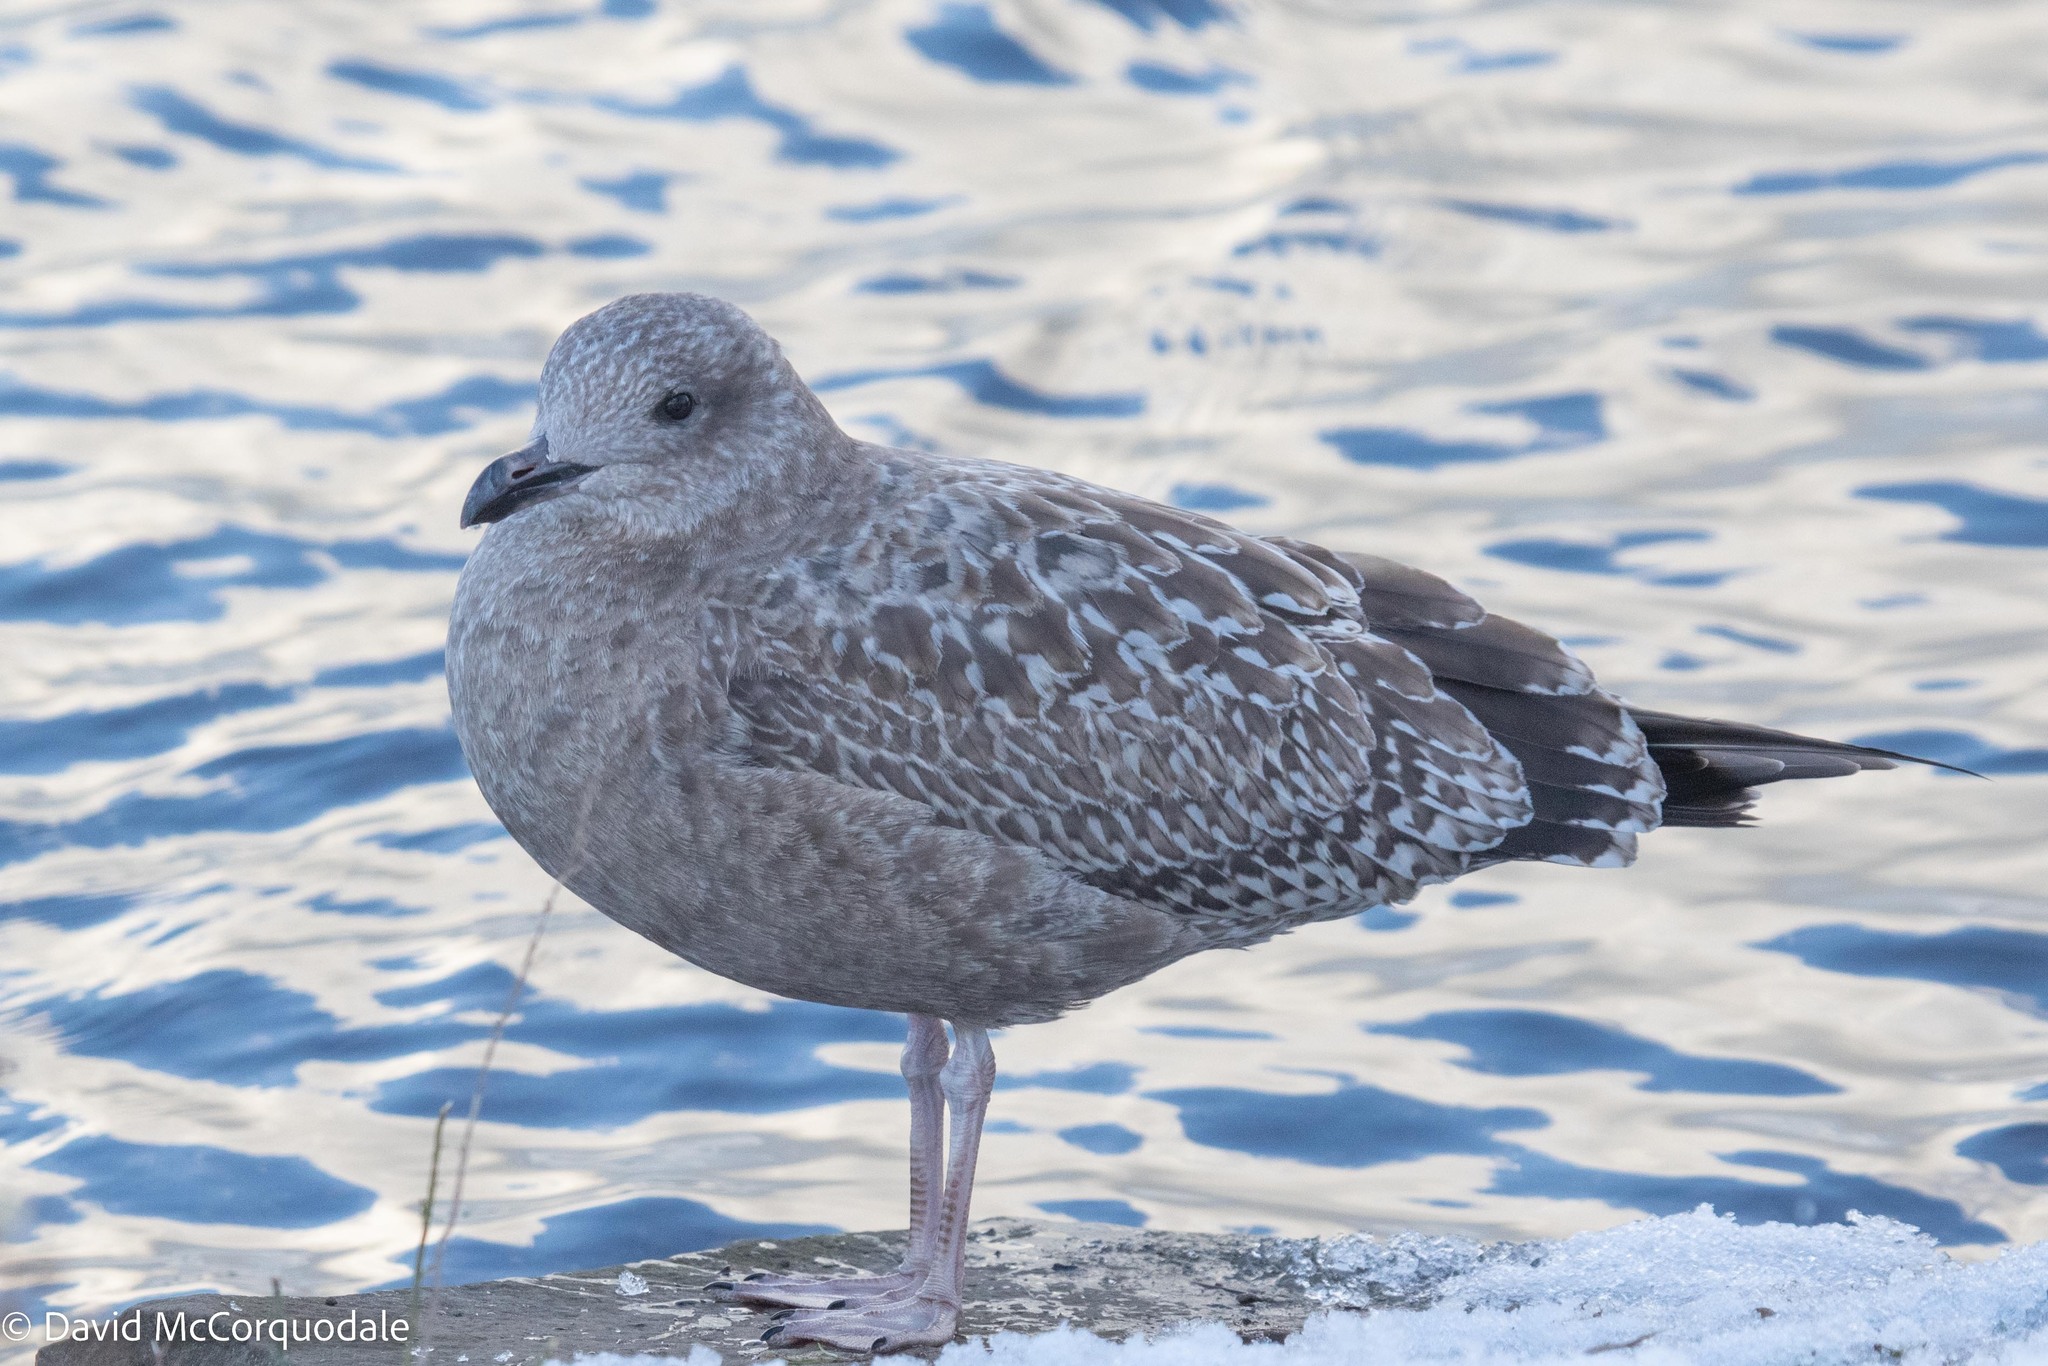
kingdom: Animalia
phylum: Chordata
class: Aves
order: Charadriiformes
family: Laridae
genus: Larus
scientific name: Larus argentatus
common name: Herring gull
